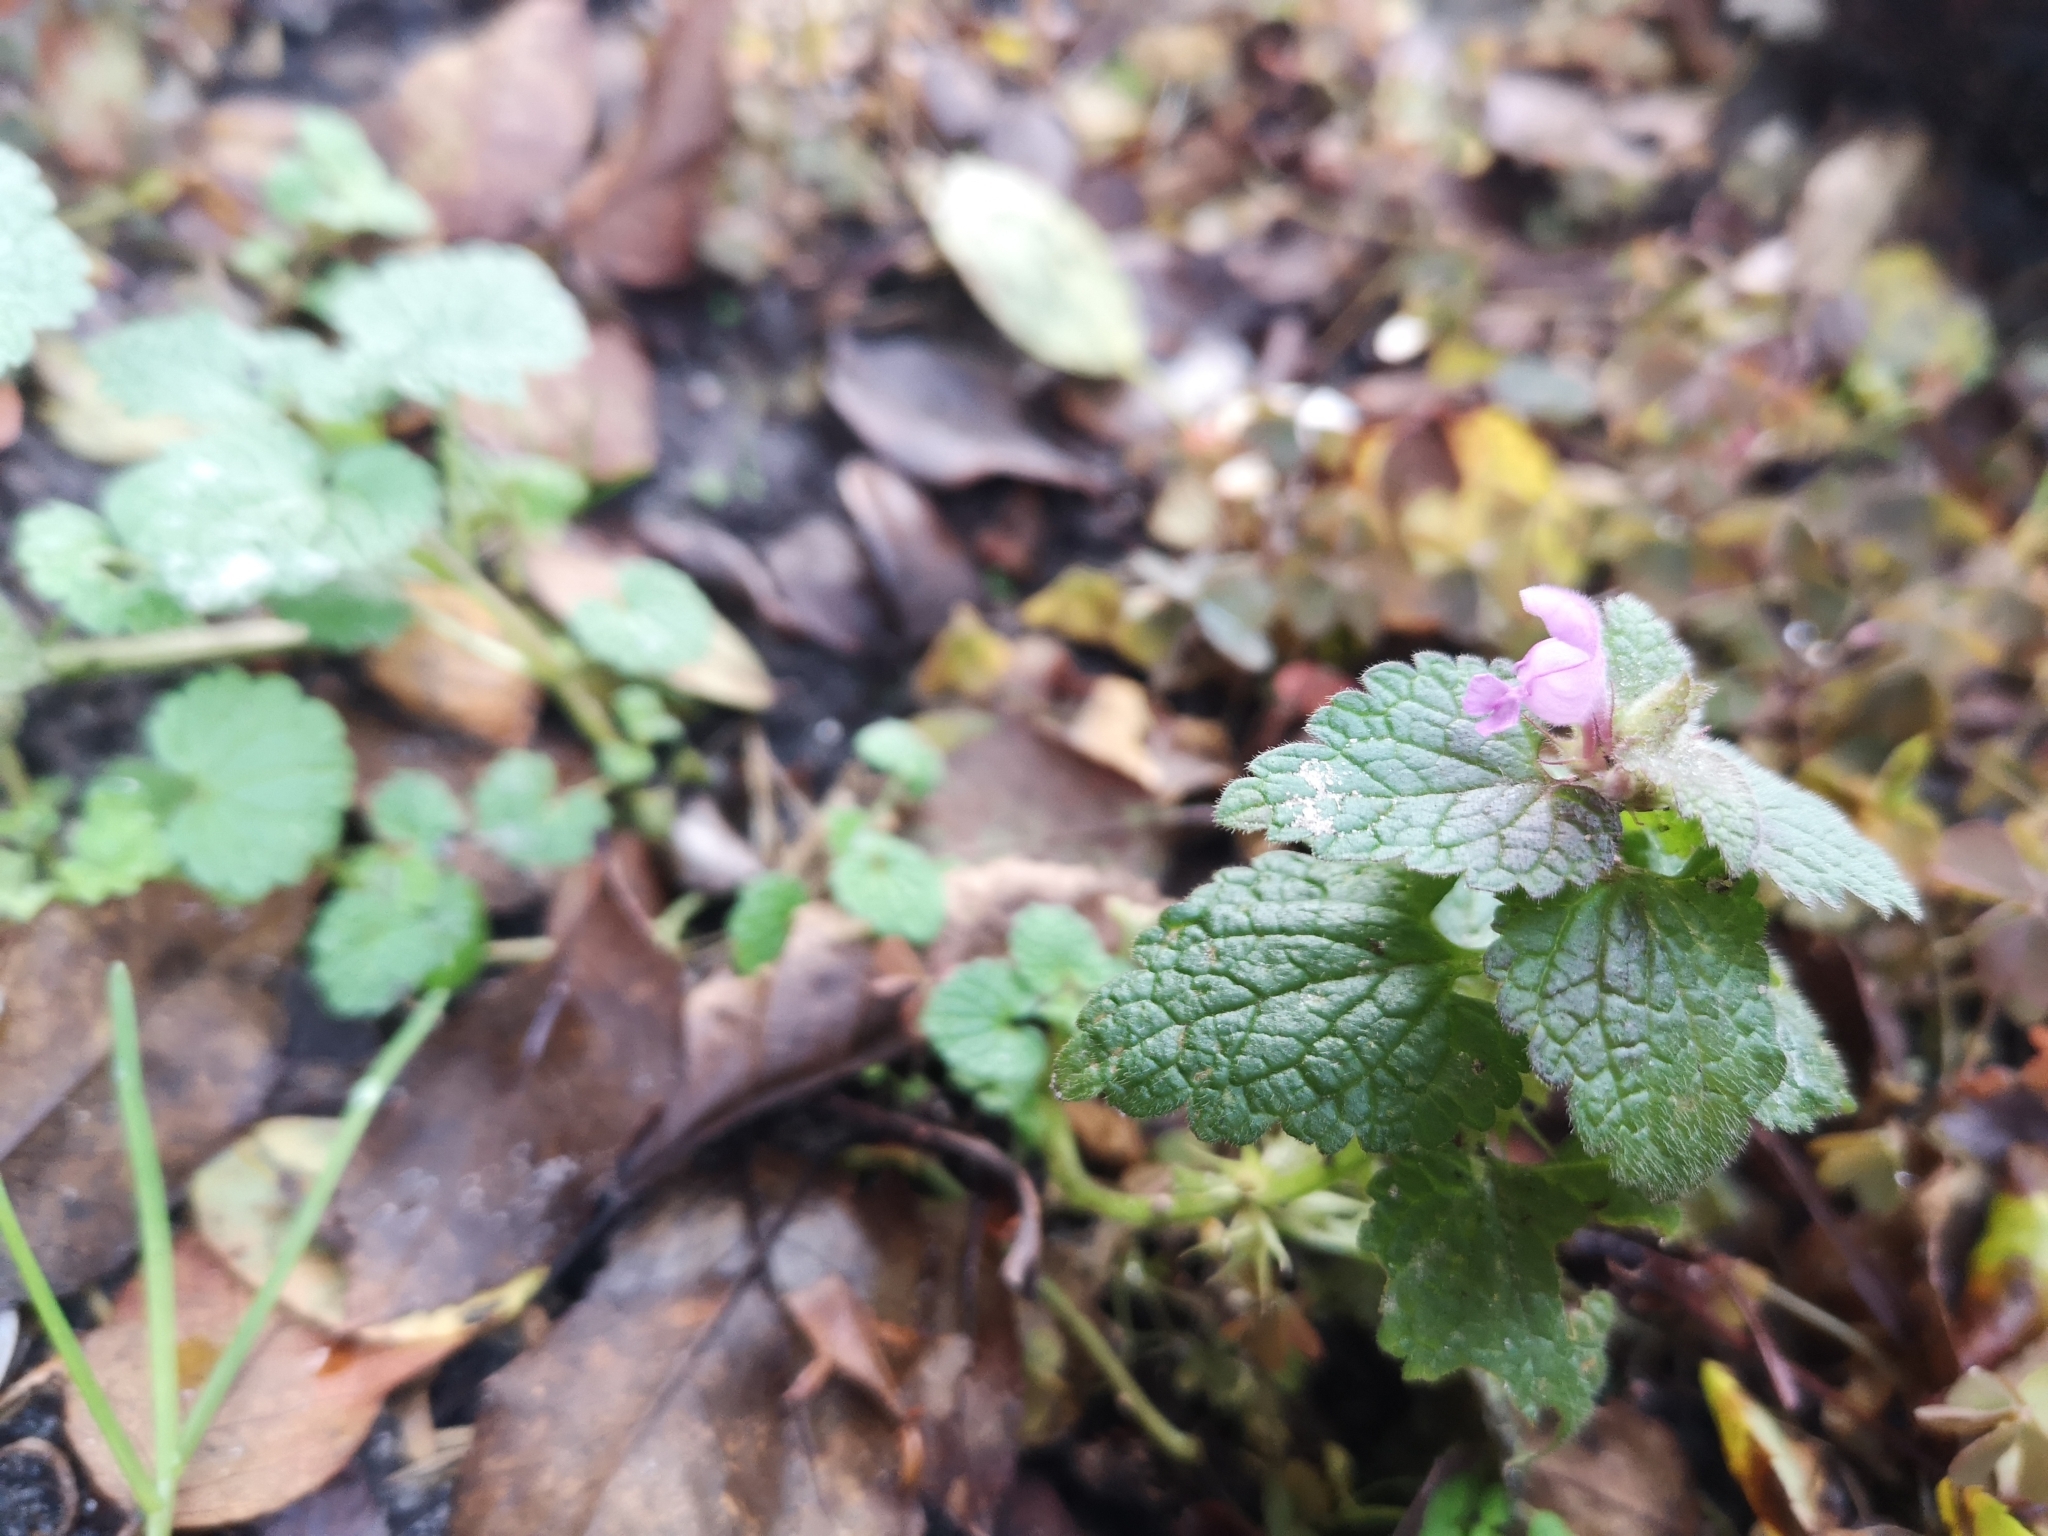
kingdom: Plantae
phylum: Tracheophyta
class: Magnoliopsida
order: Lamiales
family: Lamiaceae
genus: Lamium
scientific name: Lamium purpureum
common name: Red dead-nettle
